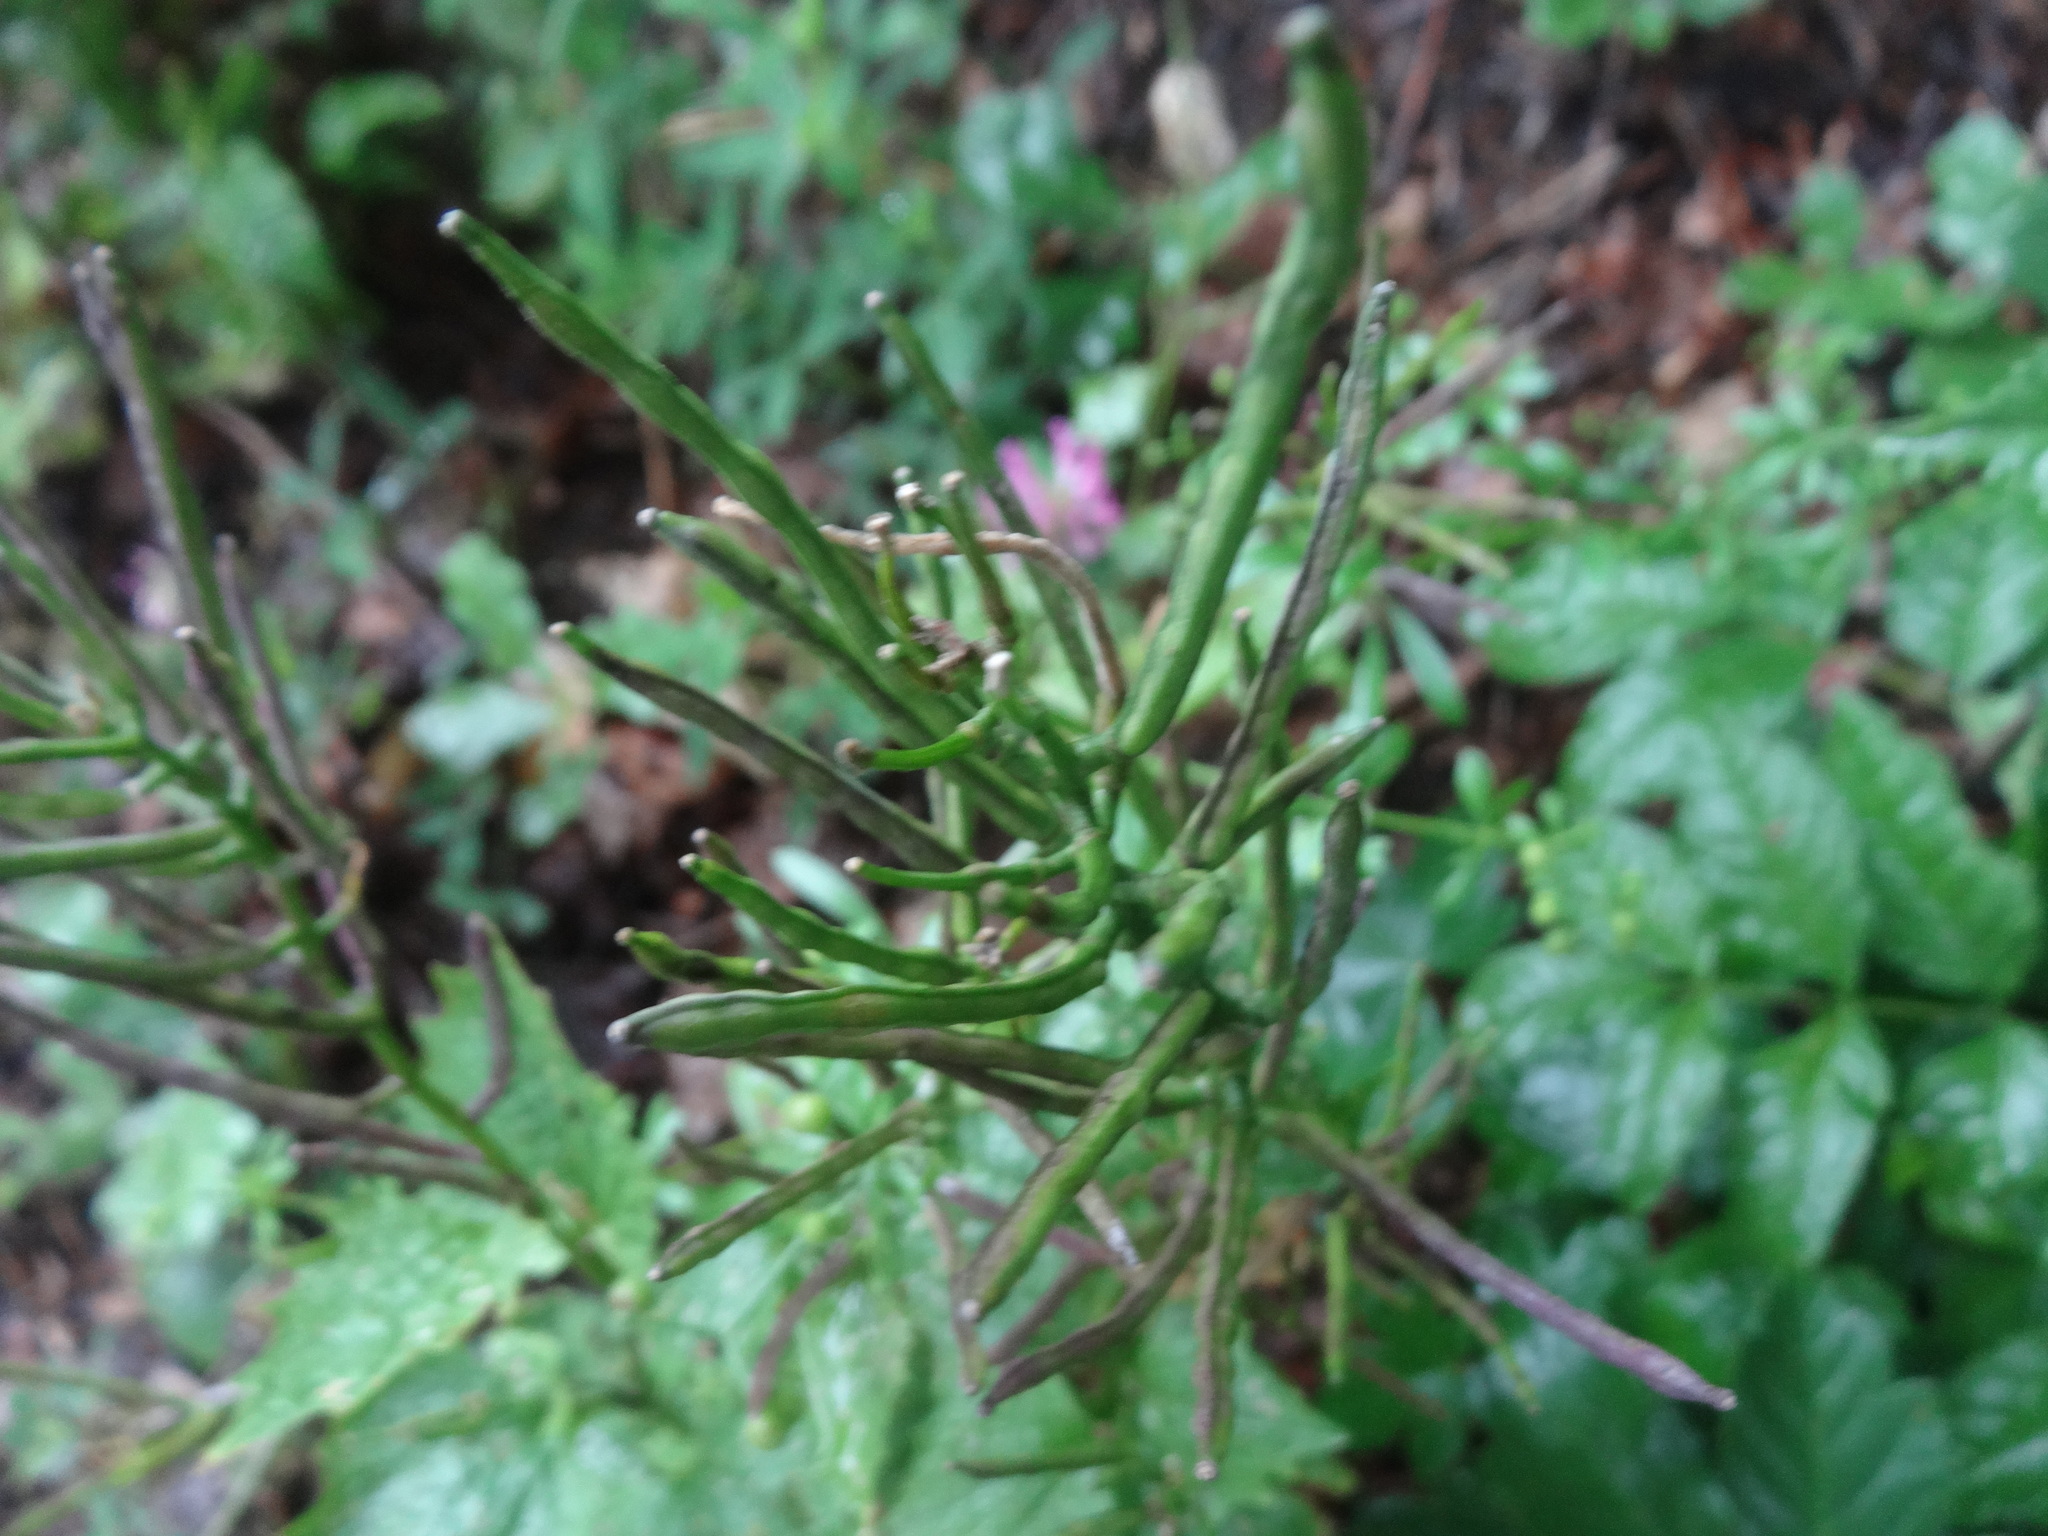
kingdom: Plantae
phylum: Tracheophyta
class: Magnoliopsida
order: Brassicales
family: Brassicaceae
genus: Alliaria
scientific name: Alliaria petiolata
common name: Garlic mustard
